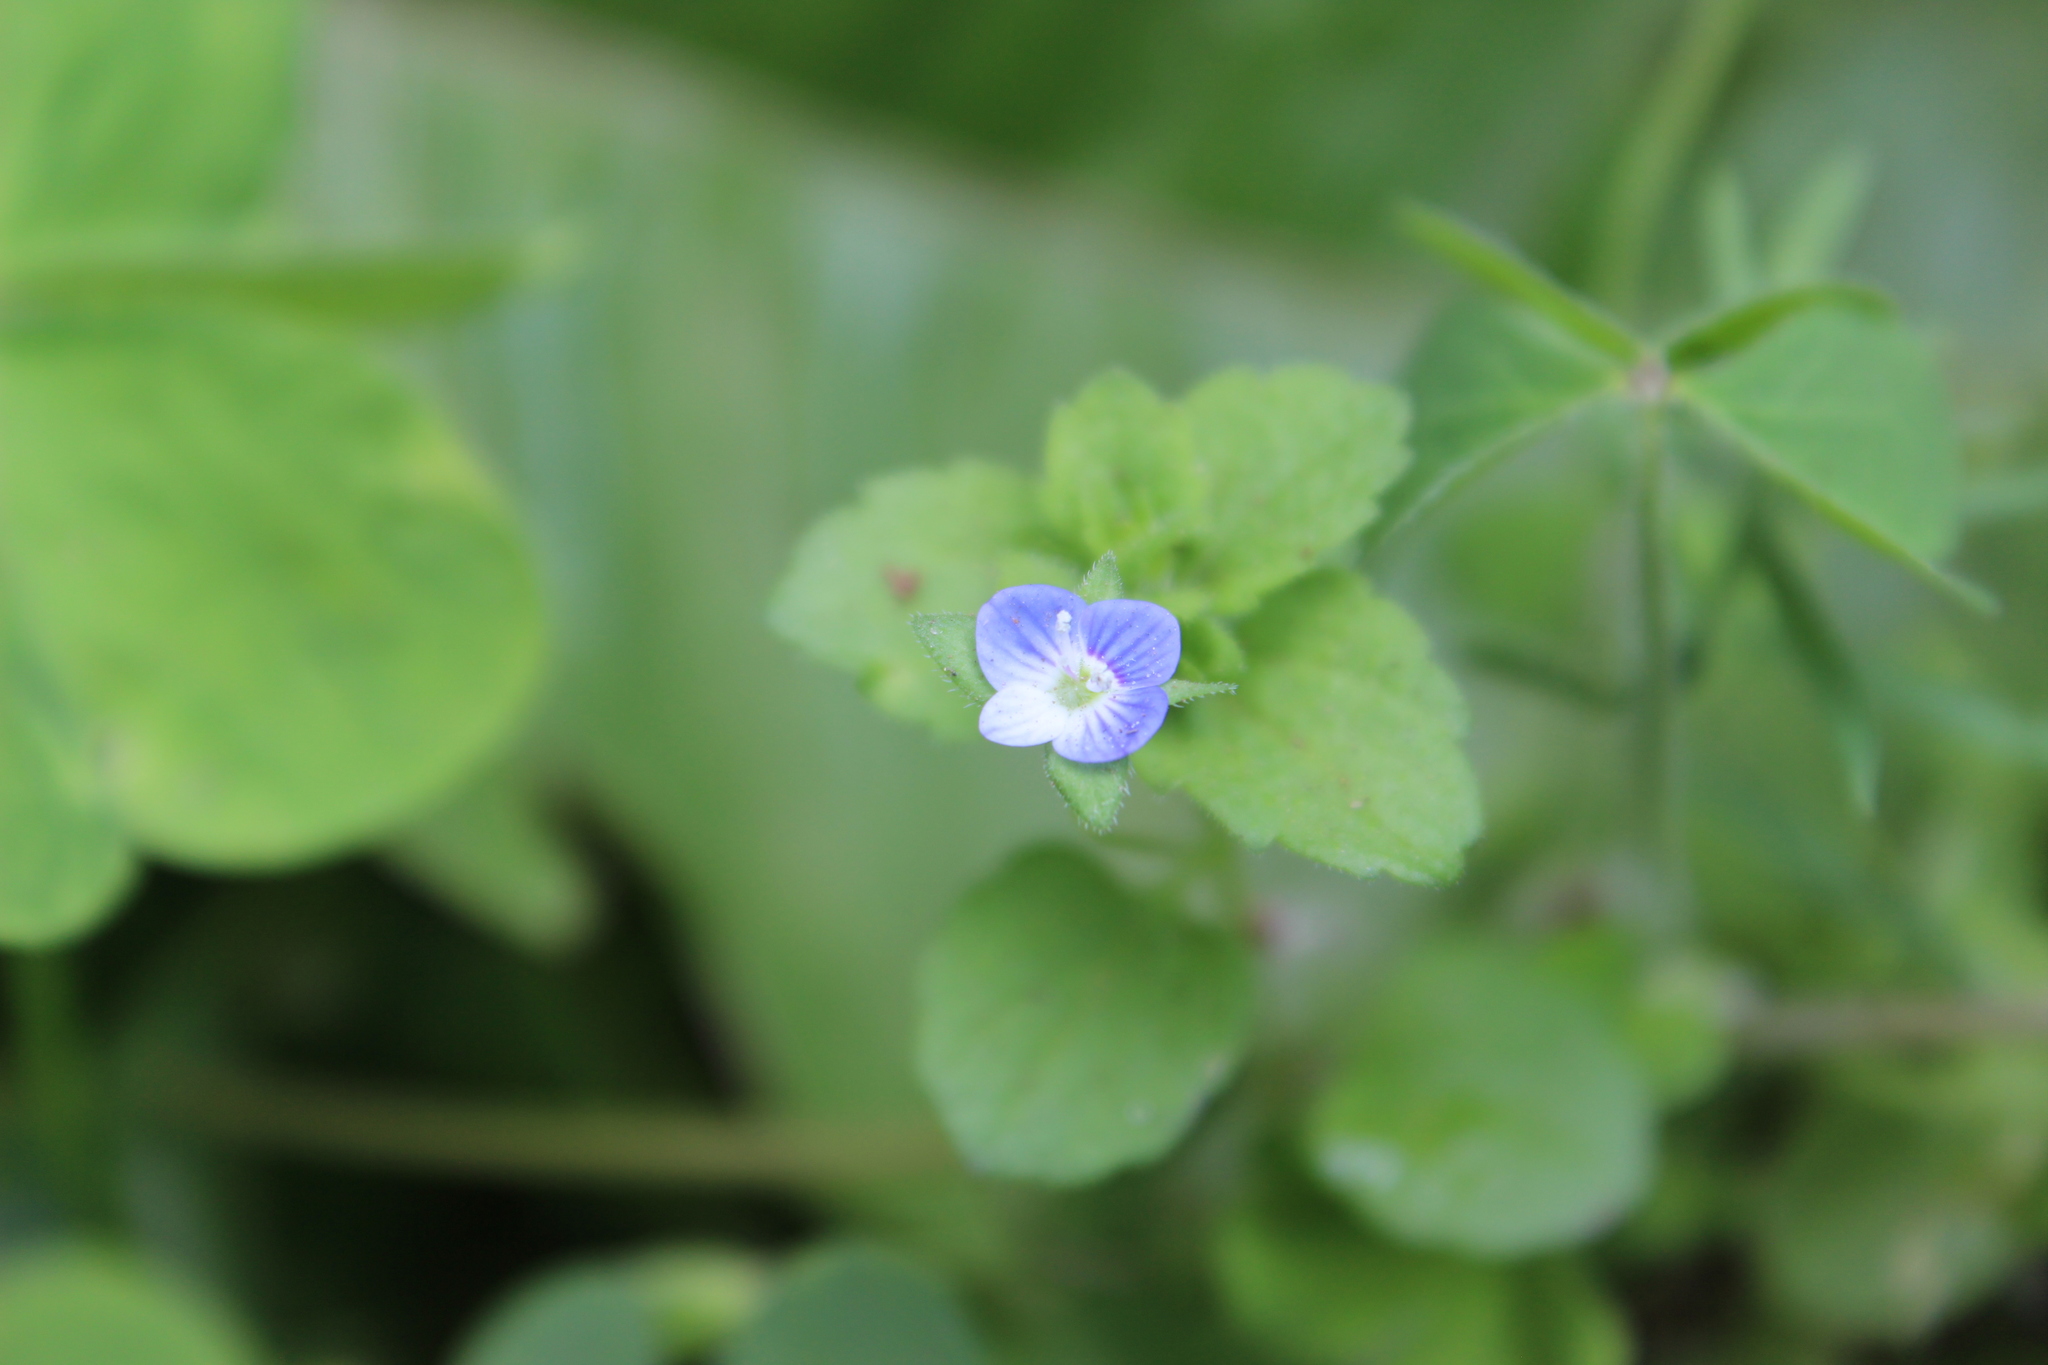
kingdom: Plantae
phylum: Tracheophyta
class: Magnoliopsida
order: Lamiales
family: Plantaginaceae
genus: Veronica
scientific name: Veronica persica
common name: Common field-speedwell
